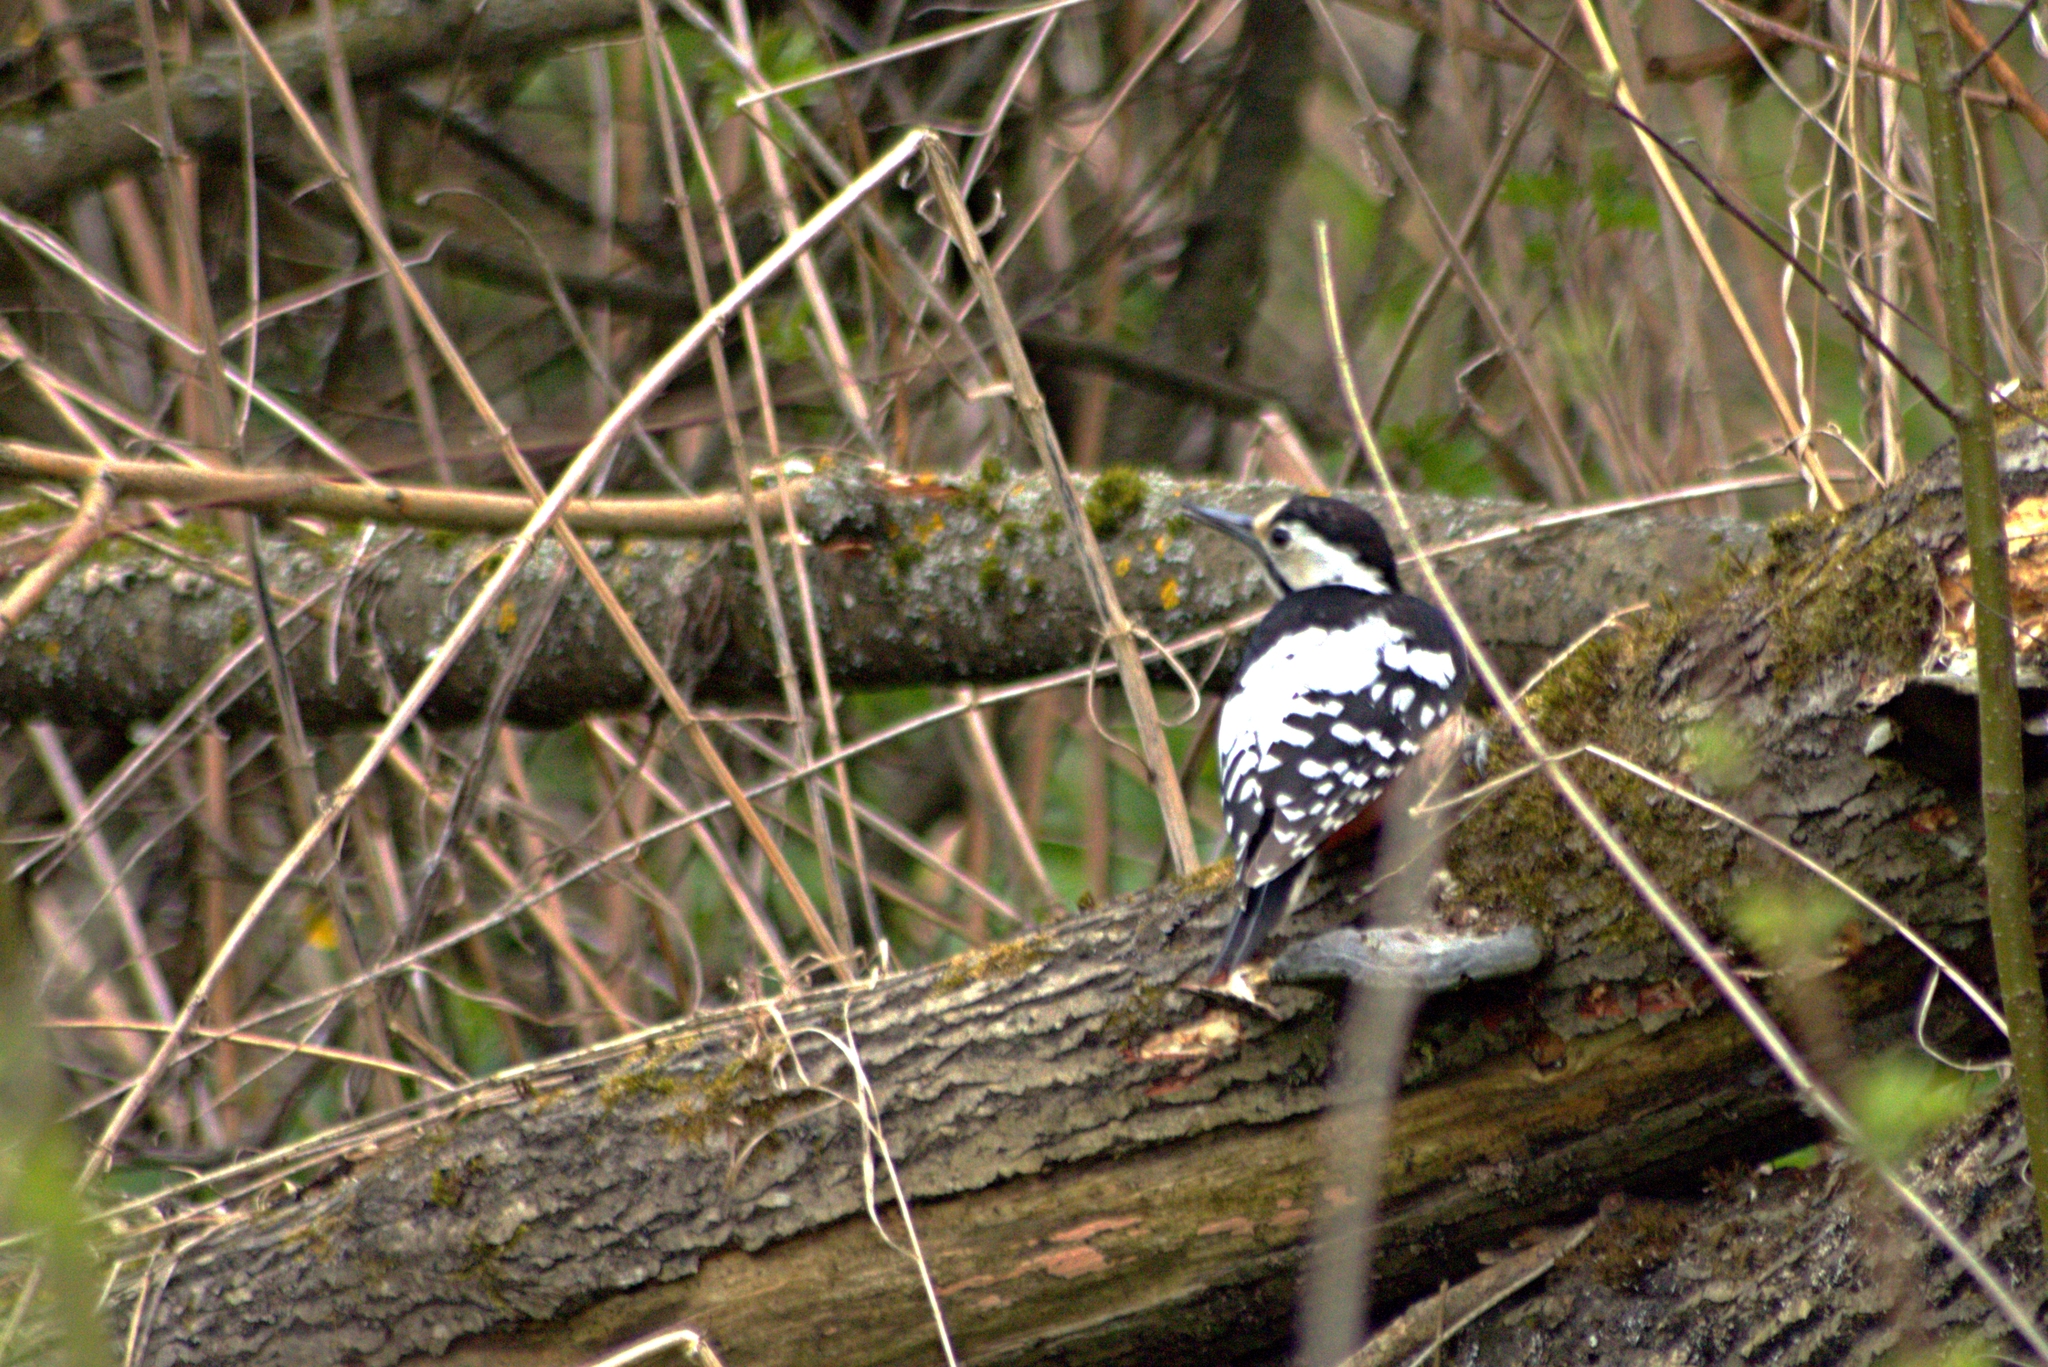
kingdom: Animalia
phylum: Chordata
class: Aves
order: Piciformes
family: Picidae
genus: Dendrocopos
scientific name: Dendrocopos leucotos
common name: White-backed woodpecker
